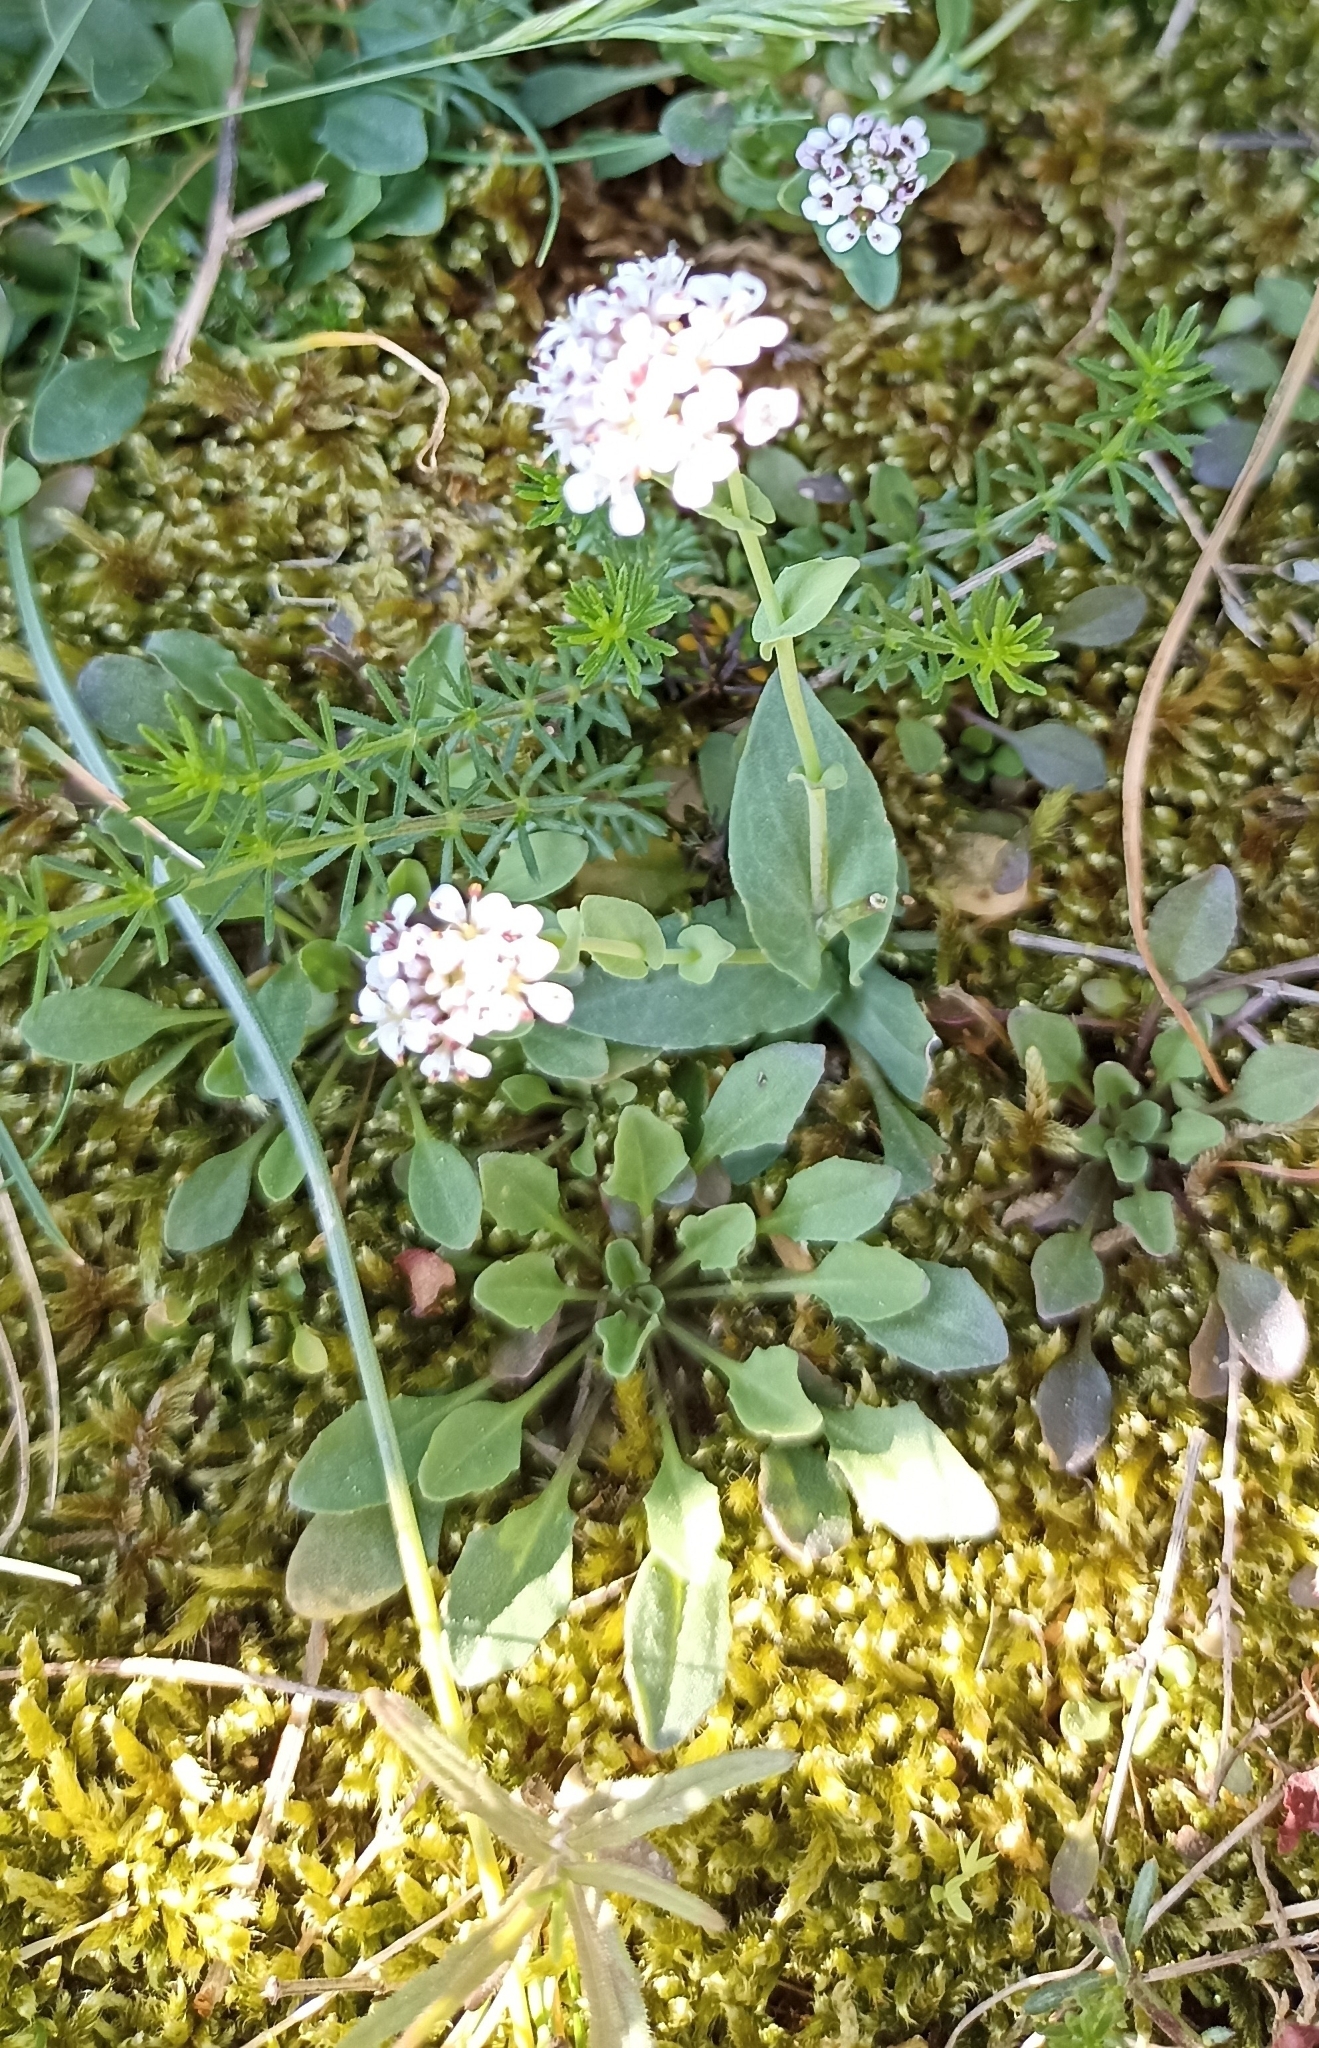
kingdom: Plantae
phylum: Tracheophyta
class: Magnoliopsida
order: Brassicales
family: Brassicaceae
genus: Noccaea
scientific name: Noccaea perfoliata
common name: Perfoliate pennycress
